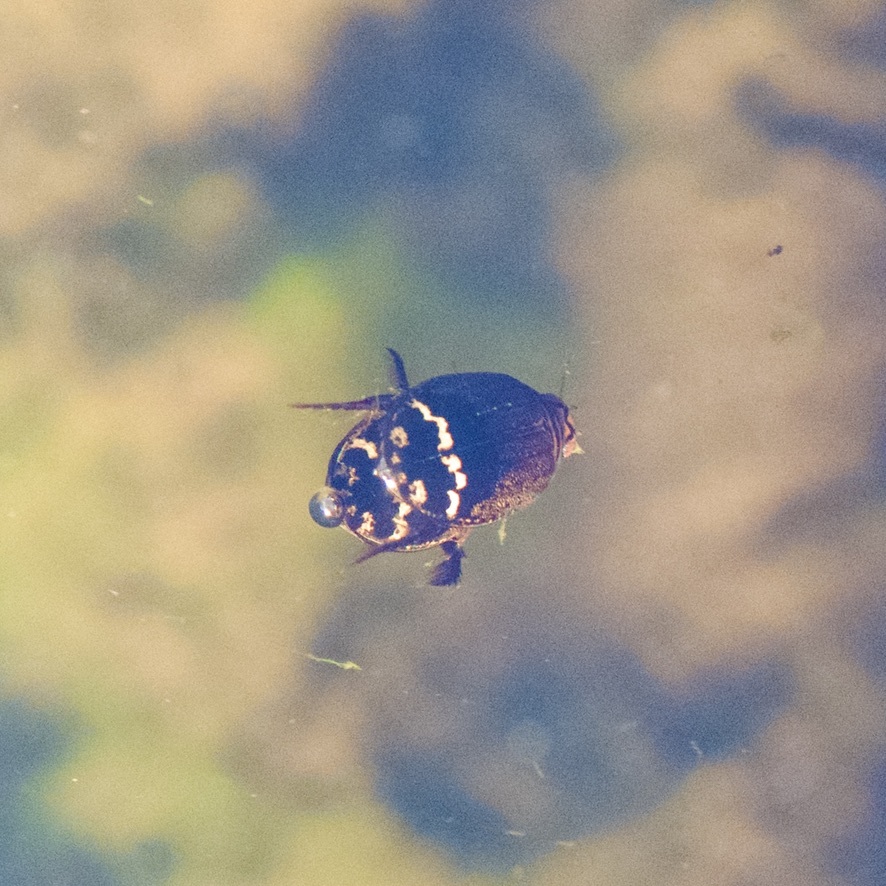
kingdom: Animalia
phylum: Arthropoda
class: Insecta
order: Coleoptera
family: Dytiscidae
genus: Acilius
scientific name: Acilius mediatus
